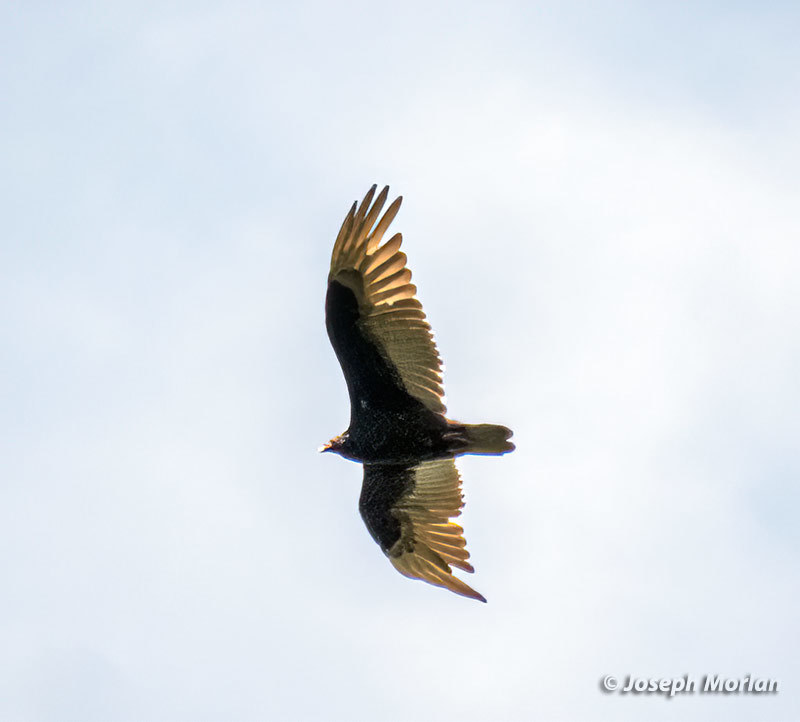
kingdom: Animalia
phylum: Chordata
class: Aves
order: Accipitriformes
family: Cathartidae
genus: Cathartes
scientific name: Cathartes aura
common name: Turkey vulture
